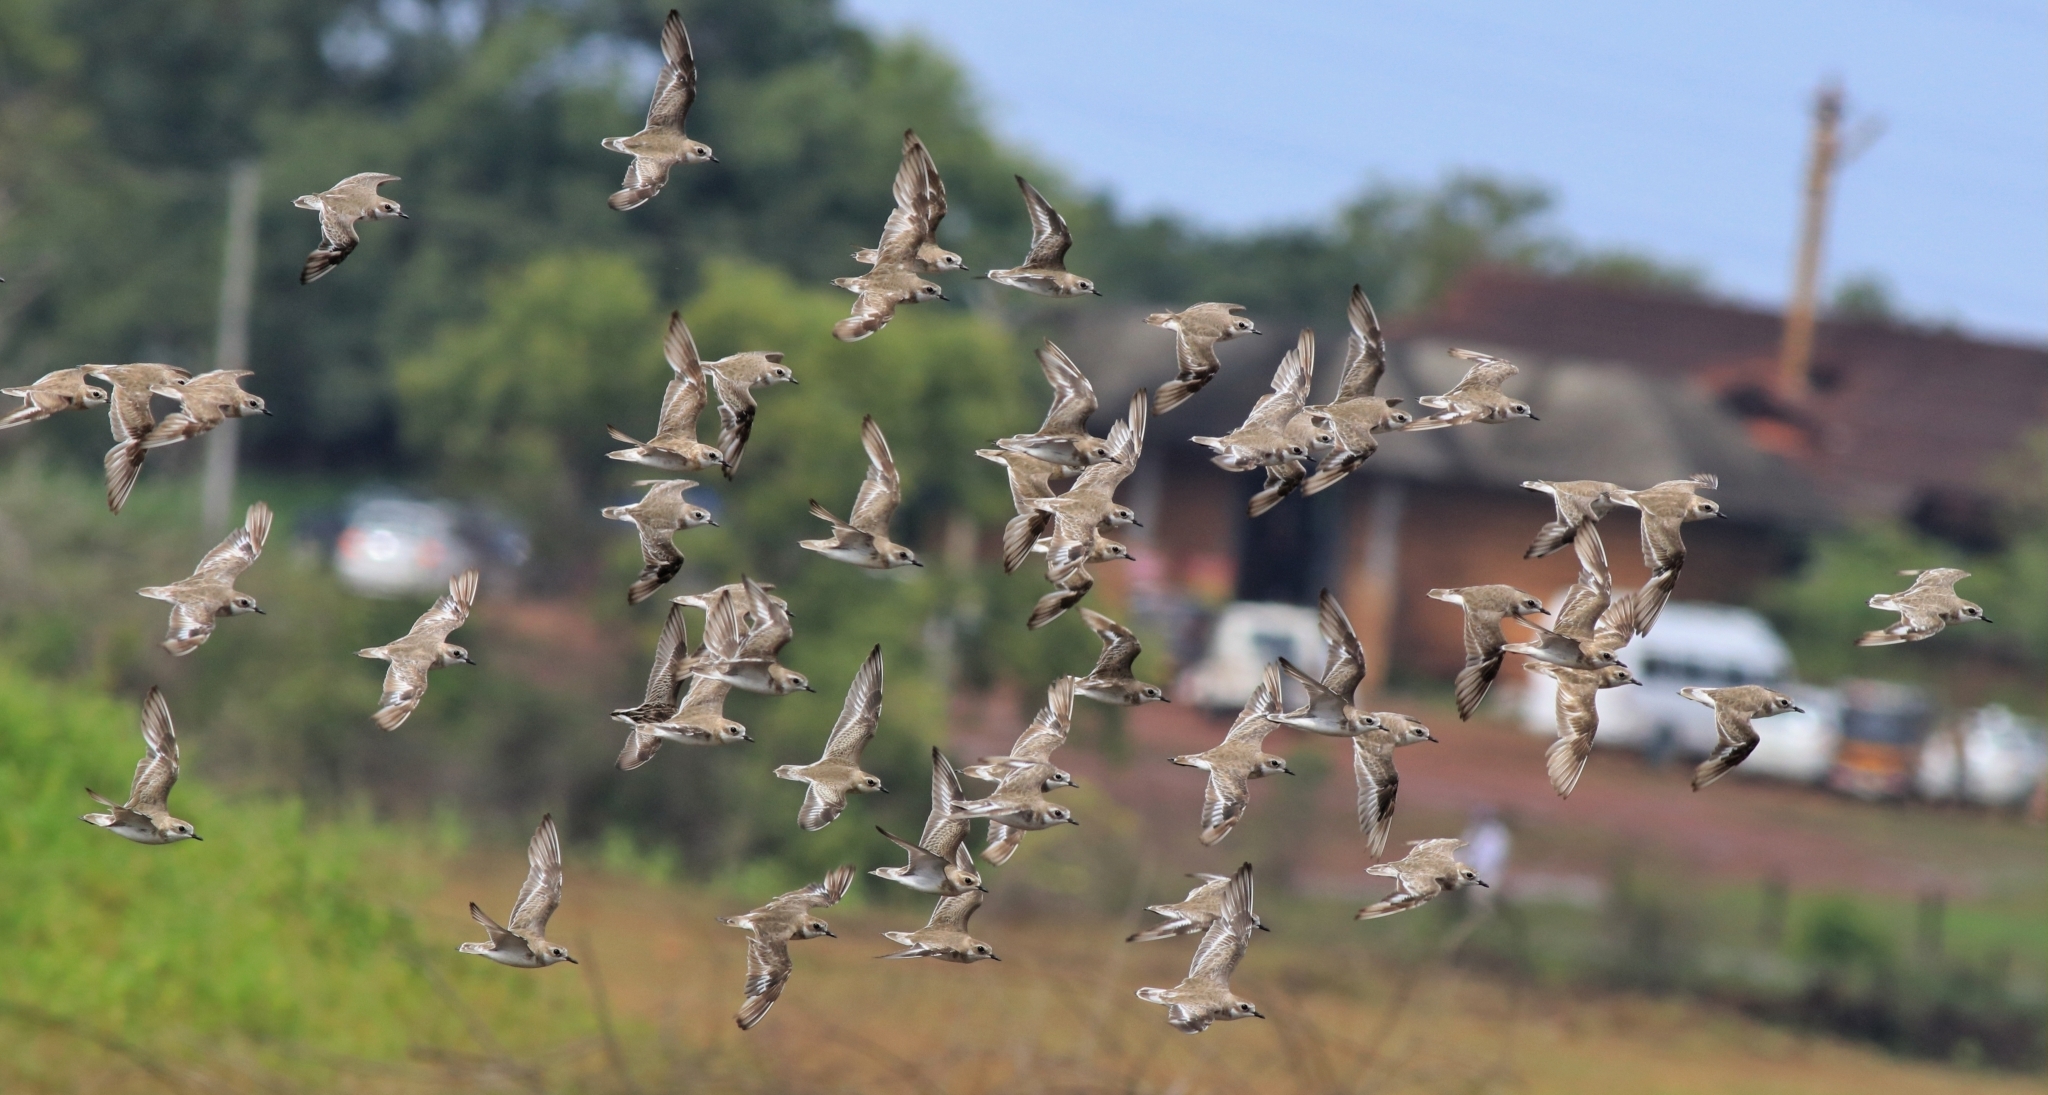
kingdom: Animalia
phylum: Chordata
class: Aves
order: Charadriiformes
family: Charadriidae
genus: Anarhynchus
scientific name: Anarhynchus
